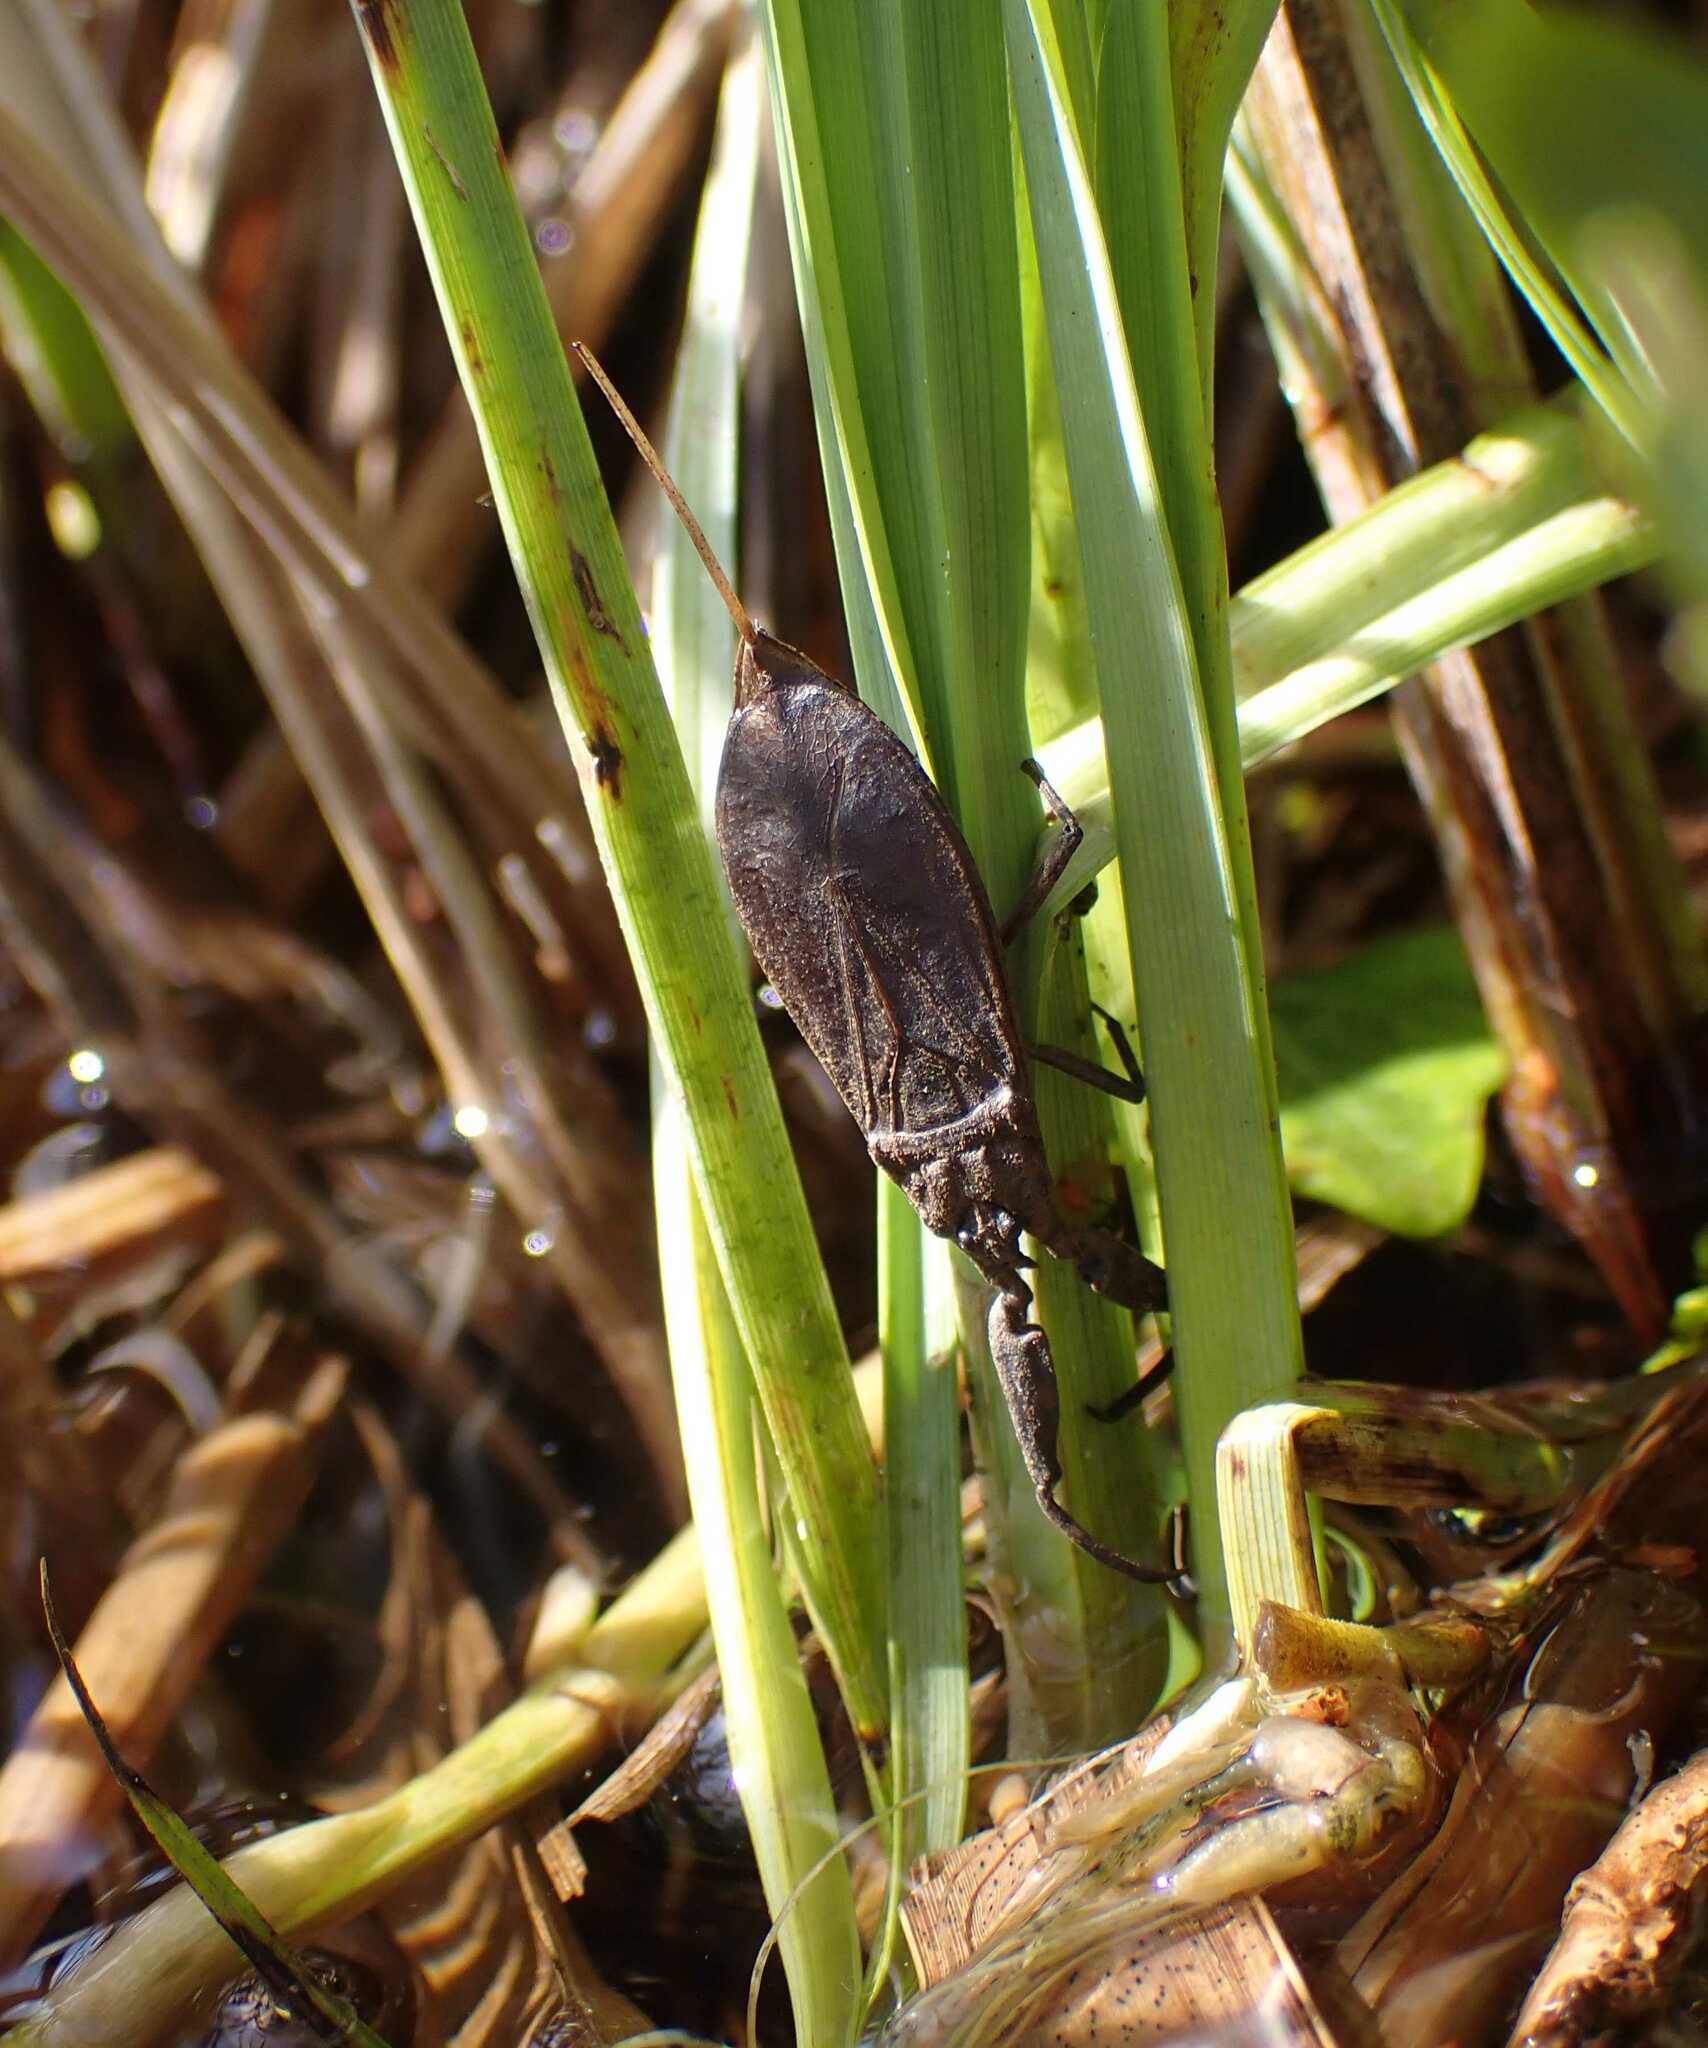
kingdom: Animalia
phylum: Arthropoda
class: Insecta
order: Hemiptera
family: Nepidae
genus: Nepa
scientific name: Nepa cinerea
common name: Water scorpion
